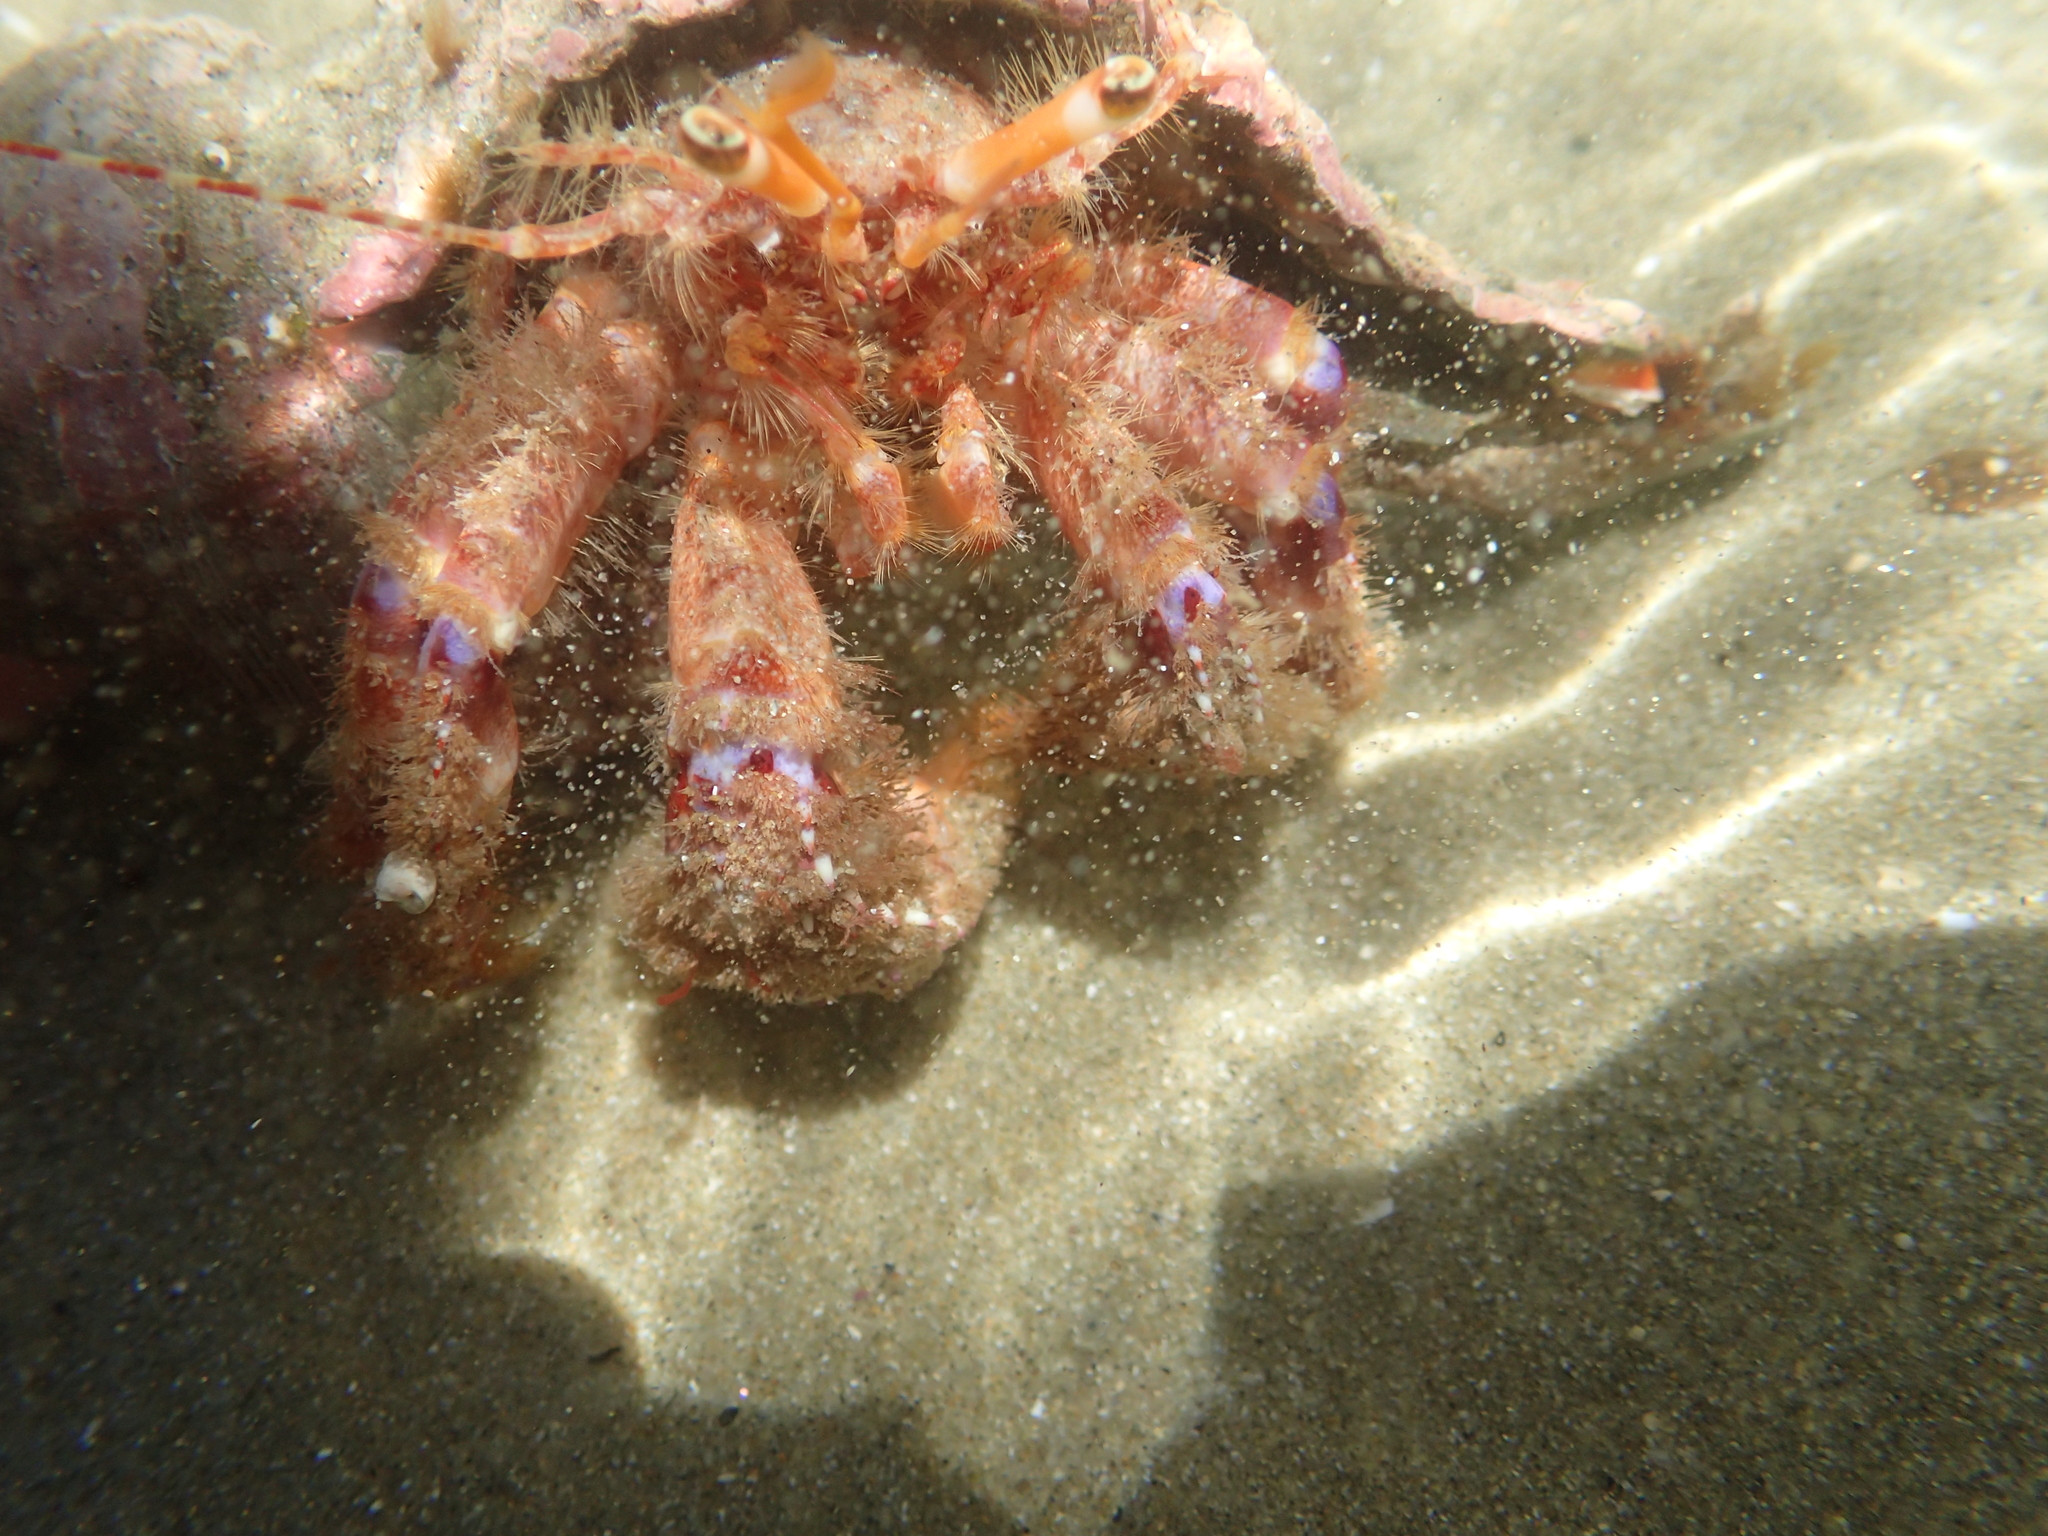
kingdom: Animalia
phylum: Arthropoda
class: Malacostraca
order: Decapoda
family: Paguridae
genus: Diacanthurus
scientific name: Diacanthurus spinulimanus
